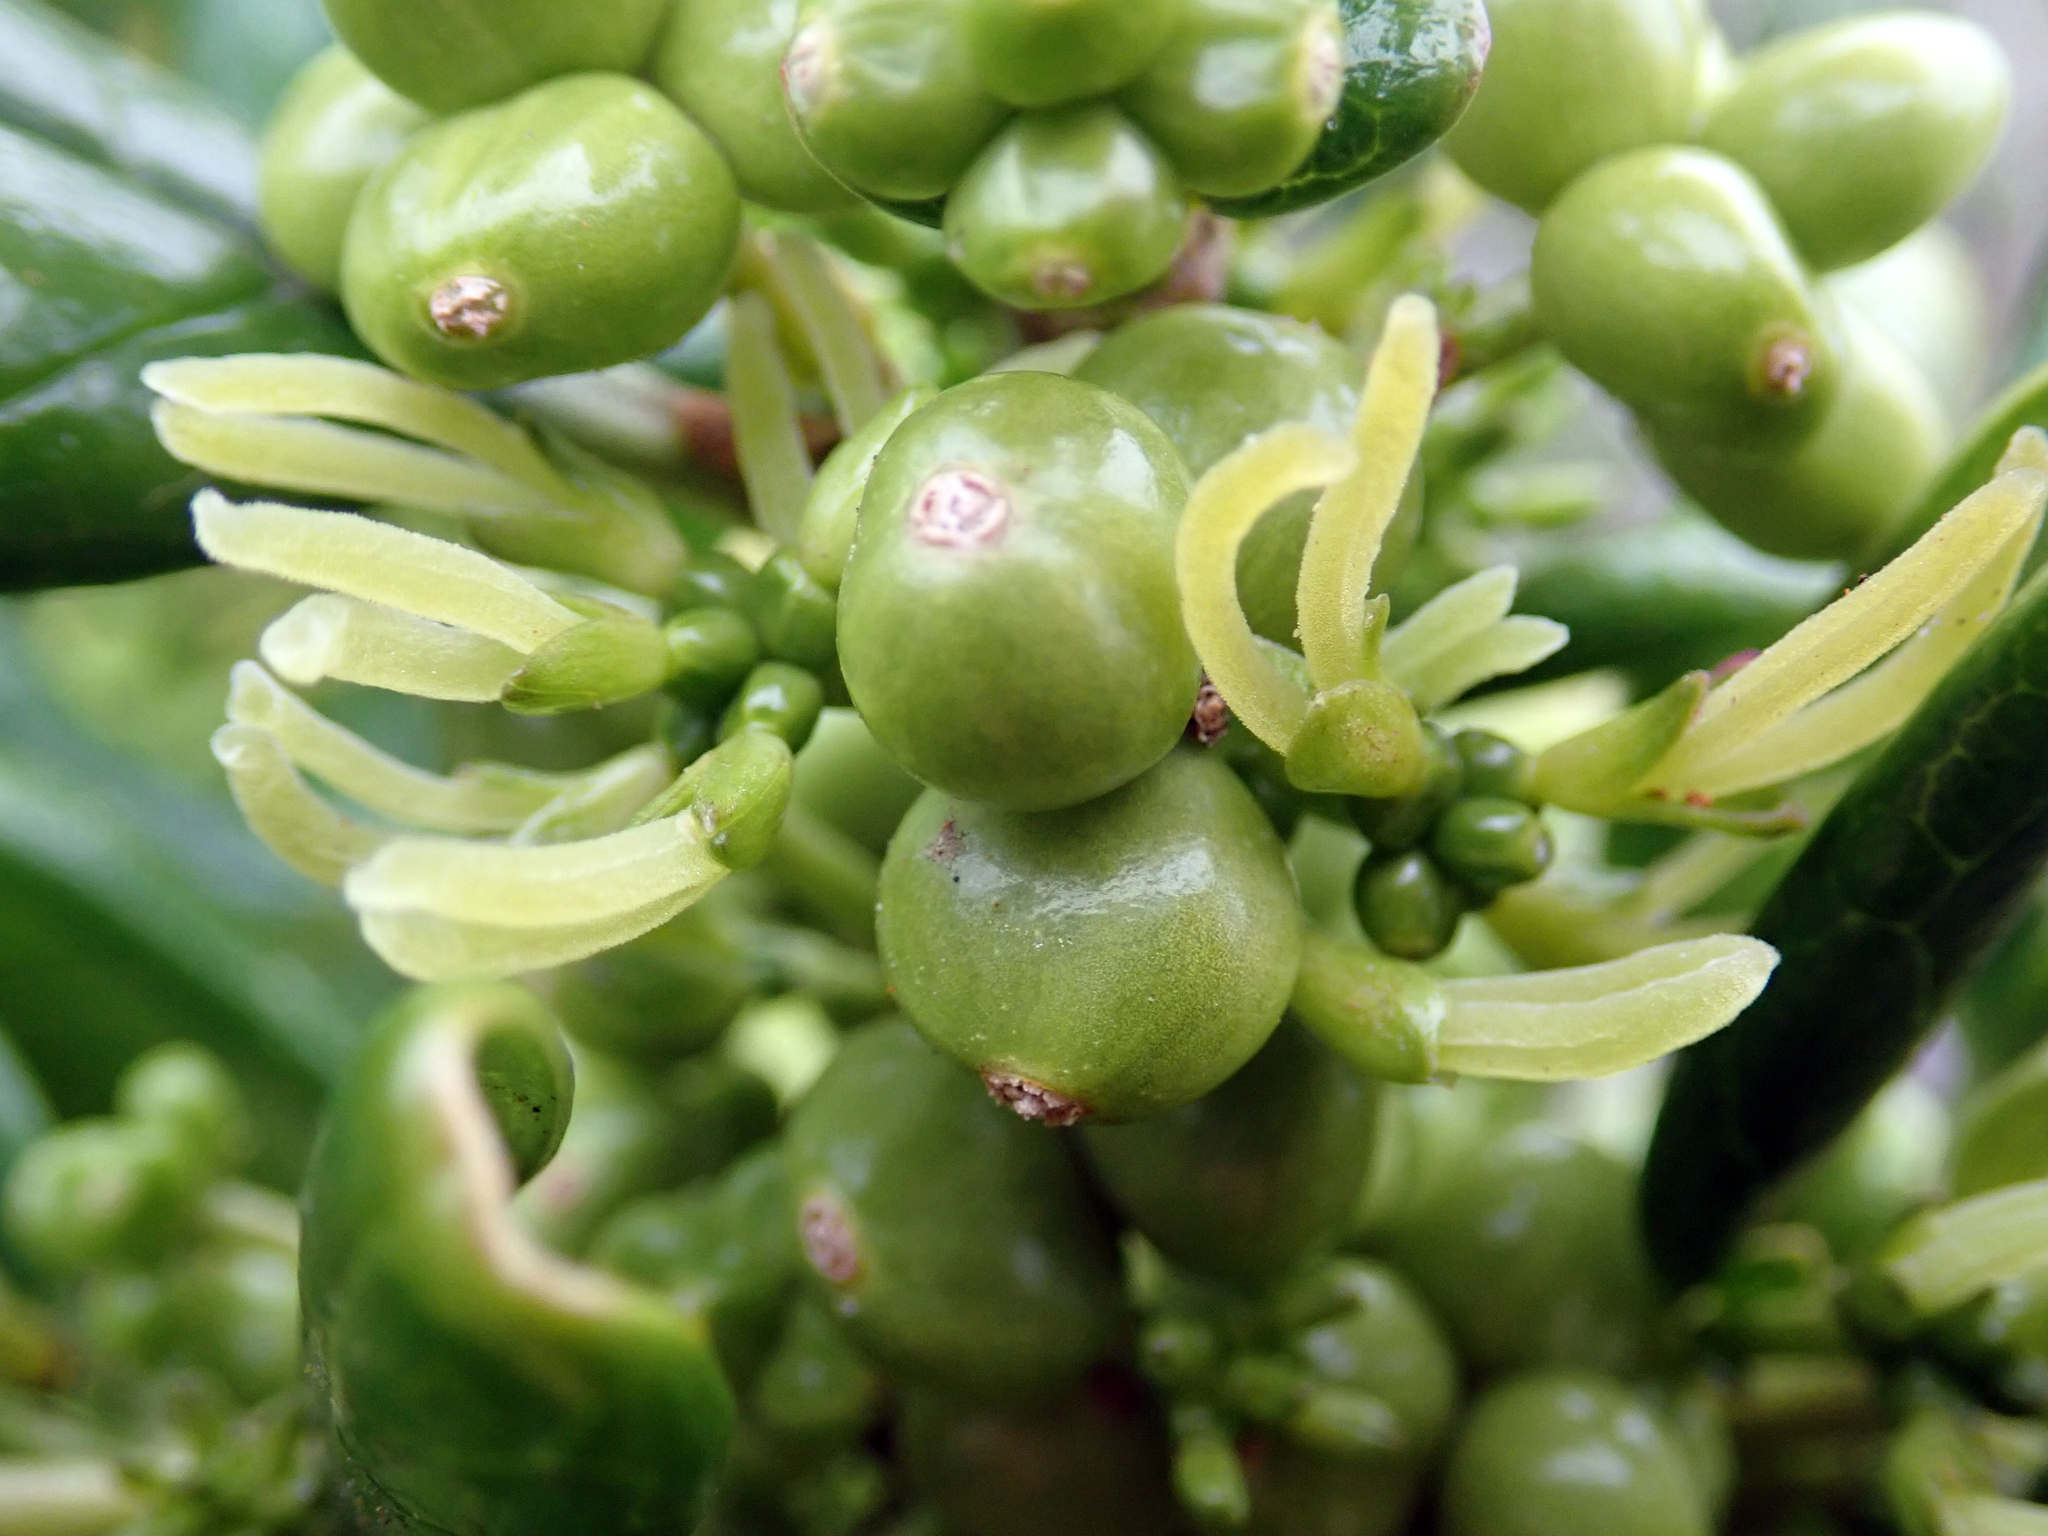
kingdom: Plantae
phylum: Tracheophyta
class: Magnoliopsida
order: Gentianales
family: Rubiaceae
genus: Coprosma
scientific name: Coprosma repens
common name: Tree bedstraw
